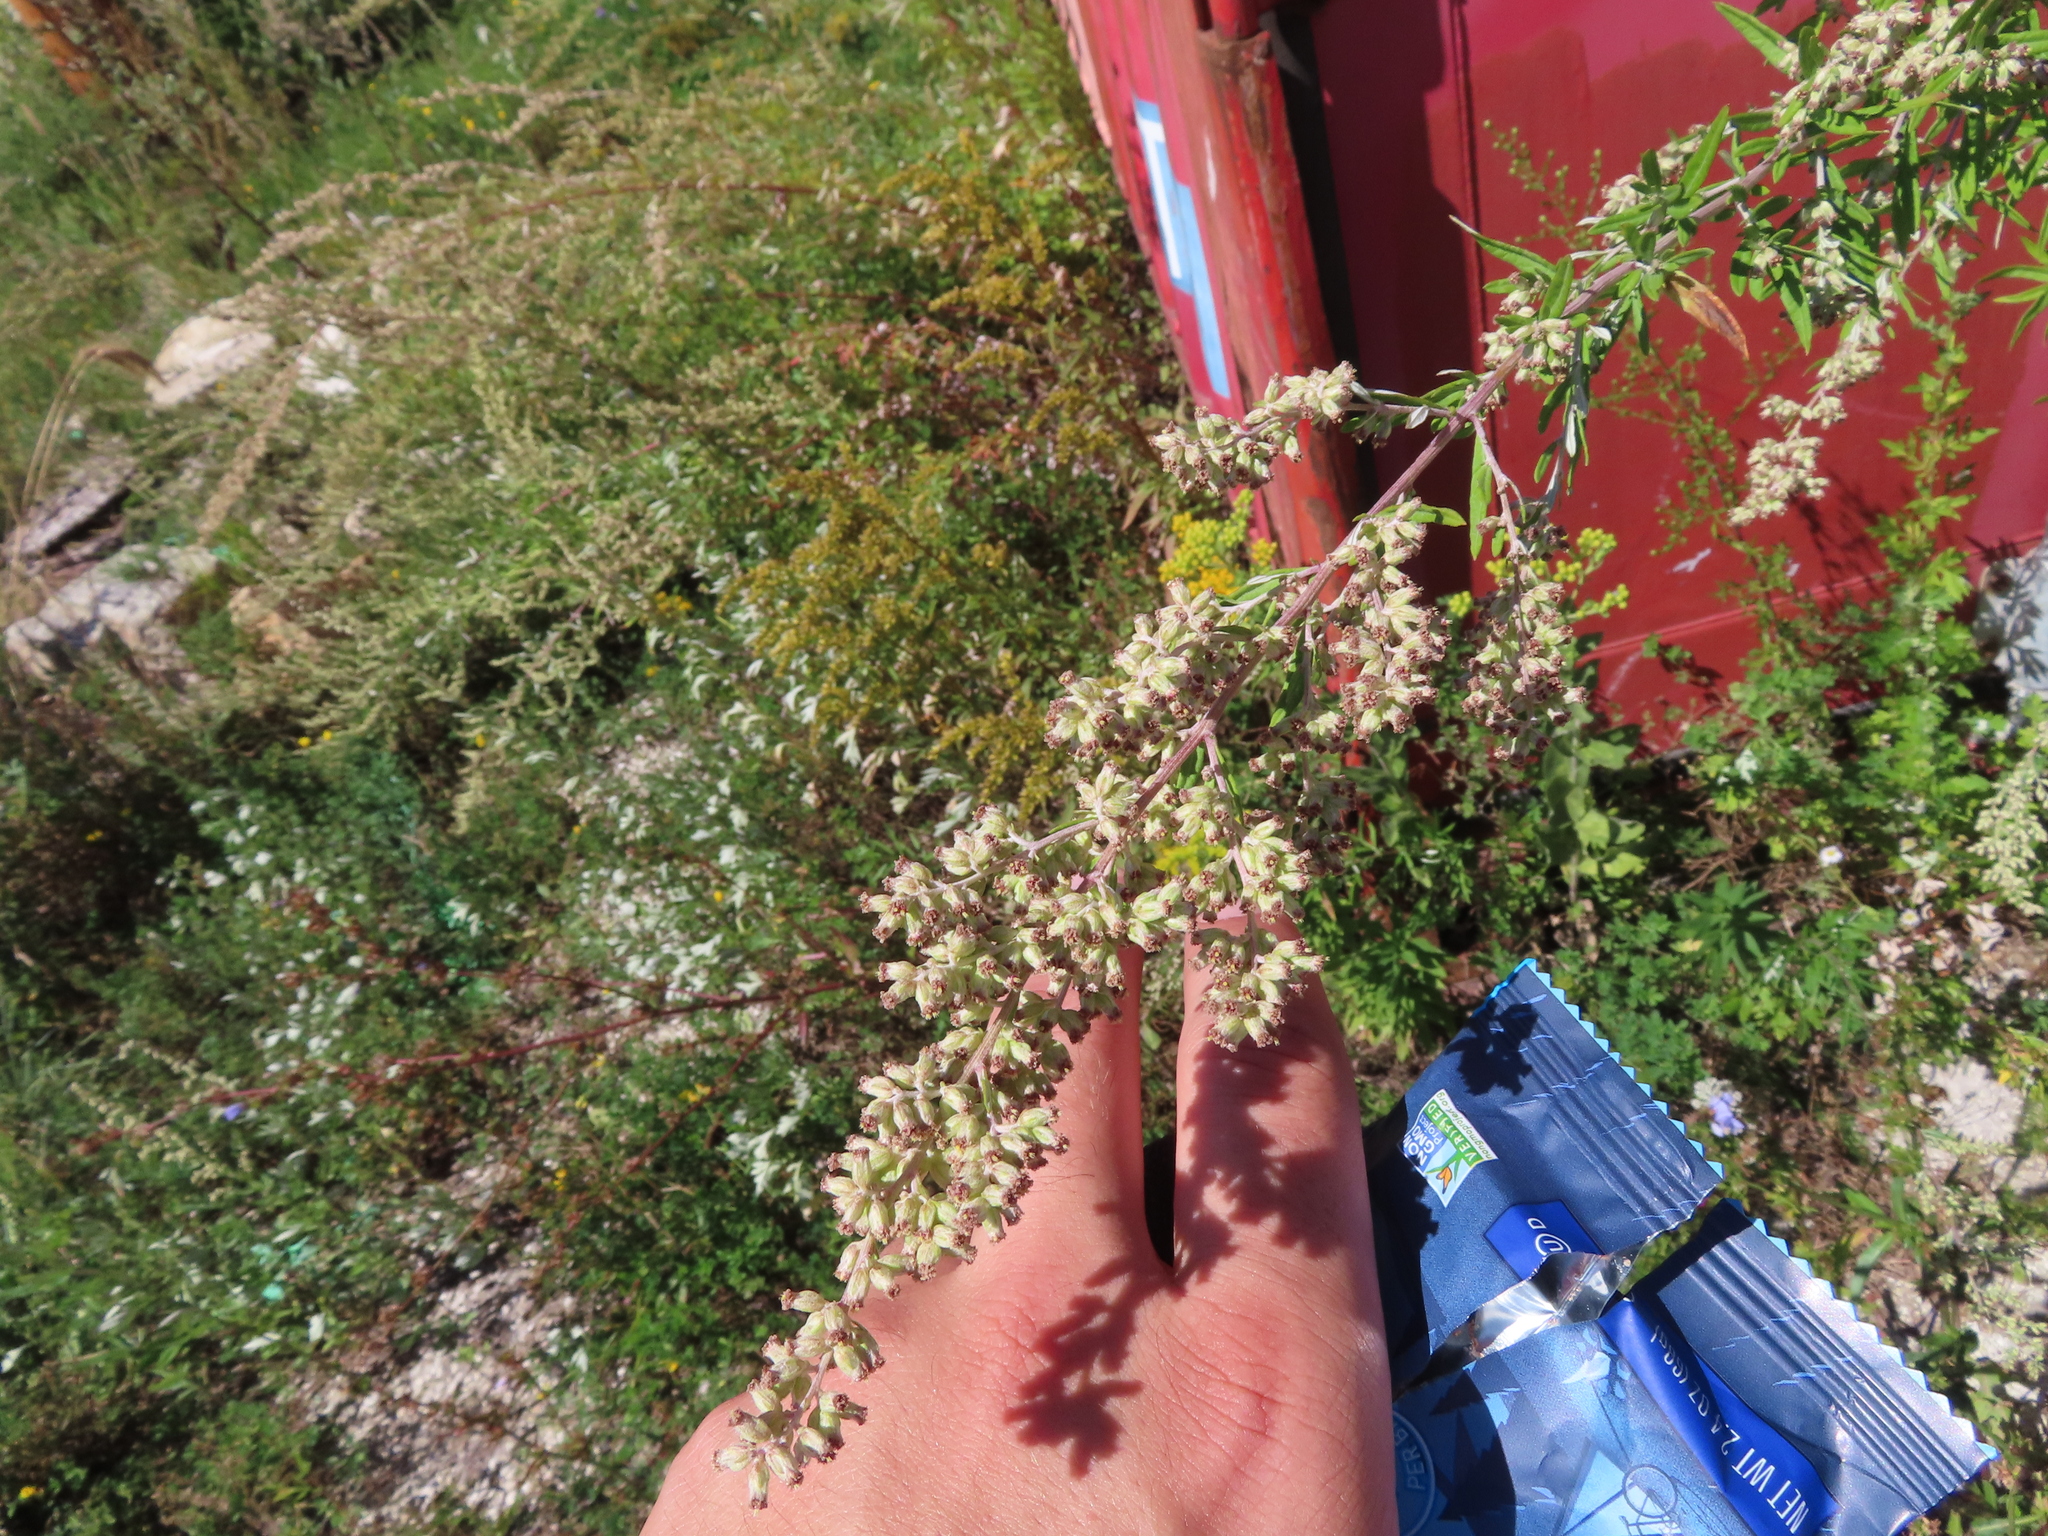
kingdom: Plantae
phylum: Tracheophyta
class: Magnoliopsida
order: Asterales
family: Asteraceae
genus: Artemisia
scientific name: Artemisia vulgaris
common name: Mugwort
